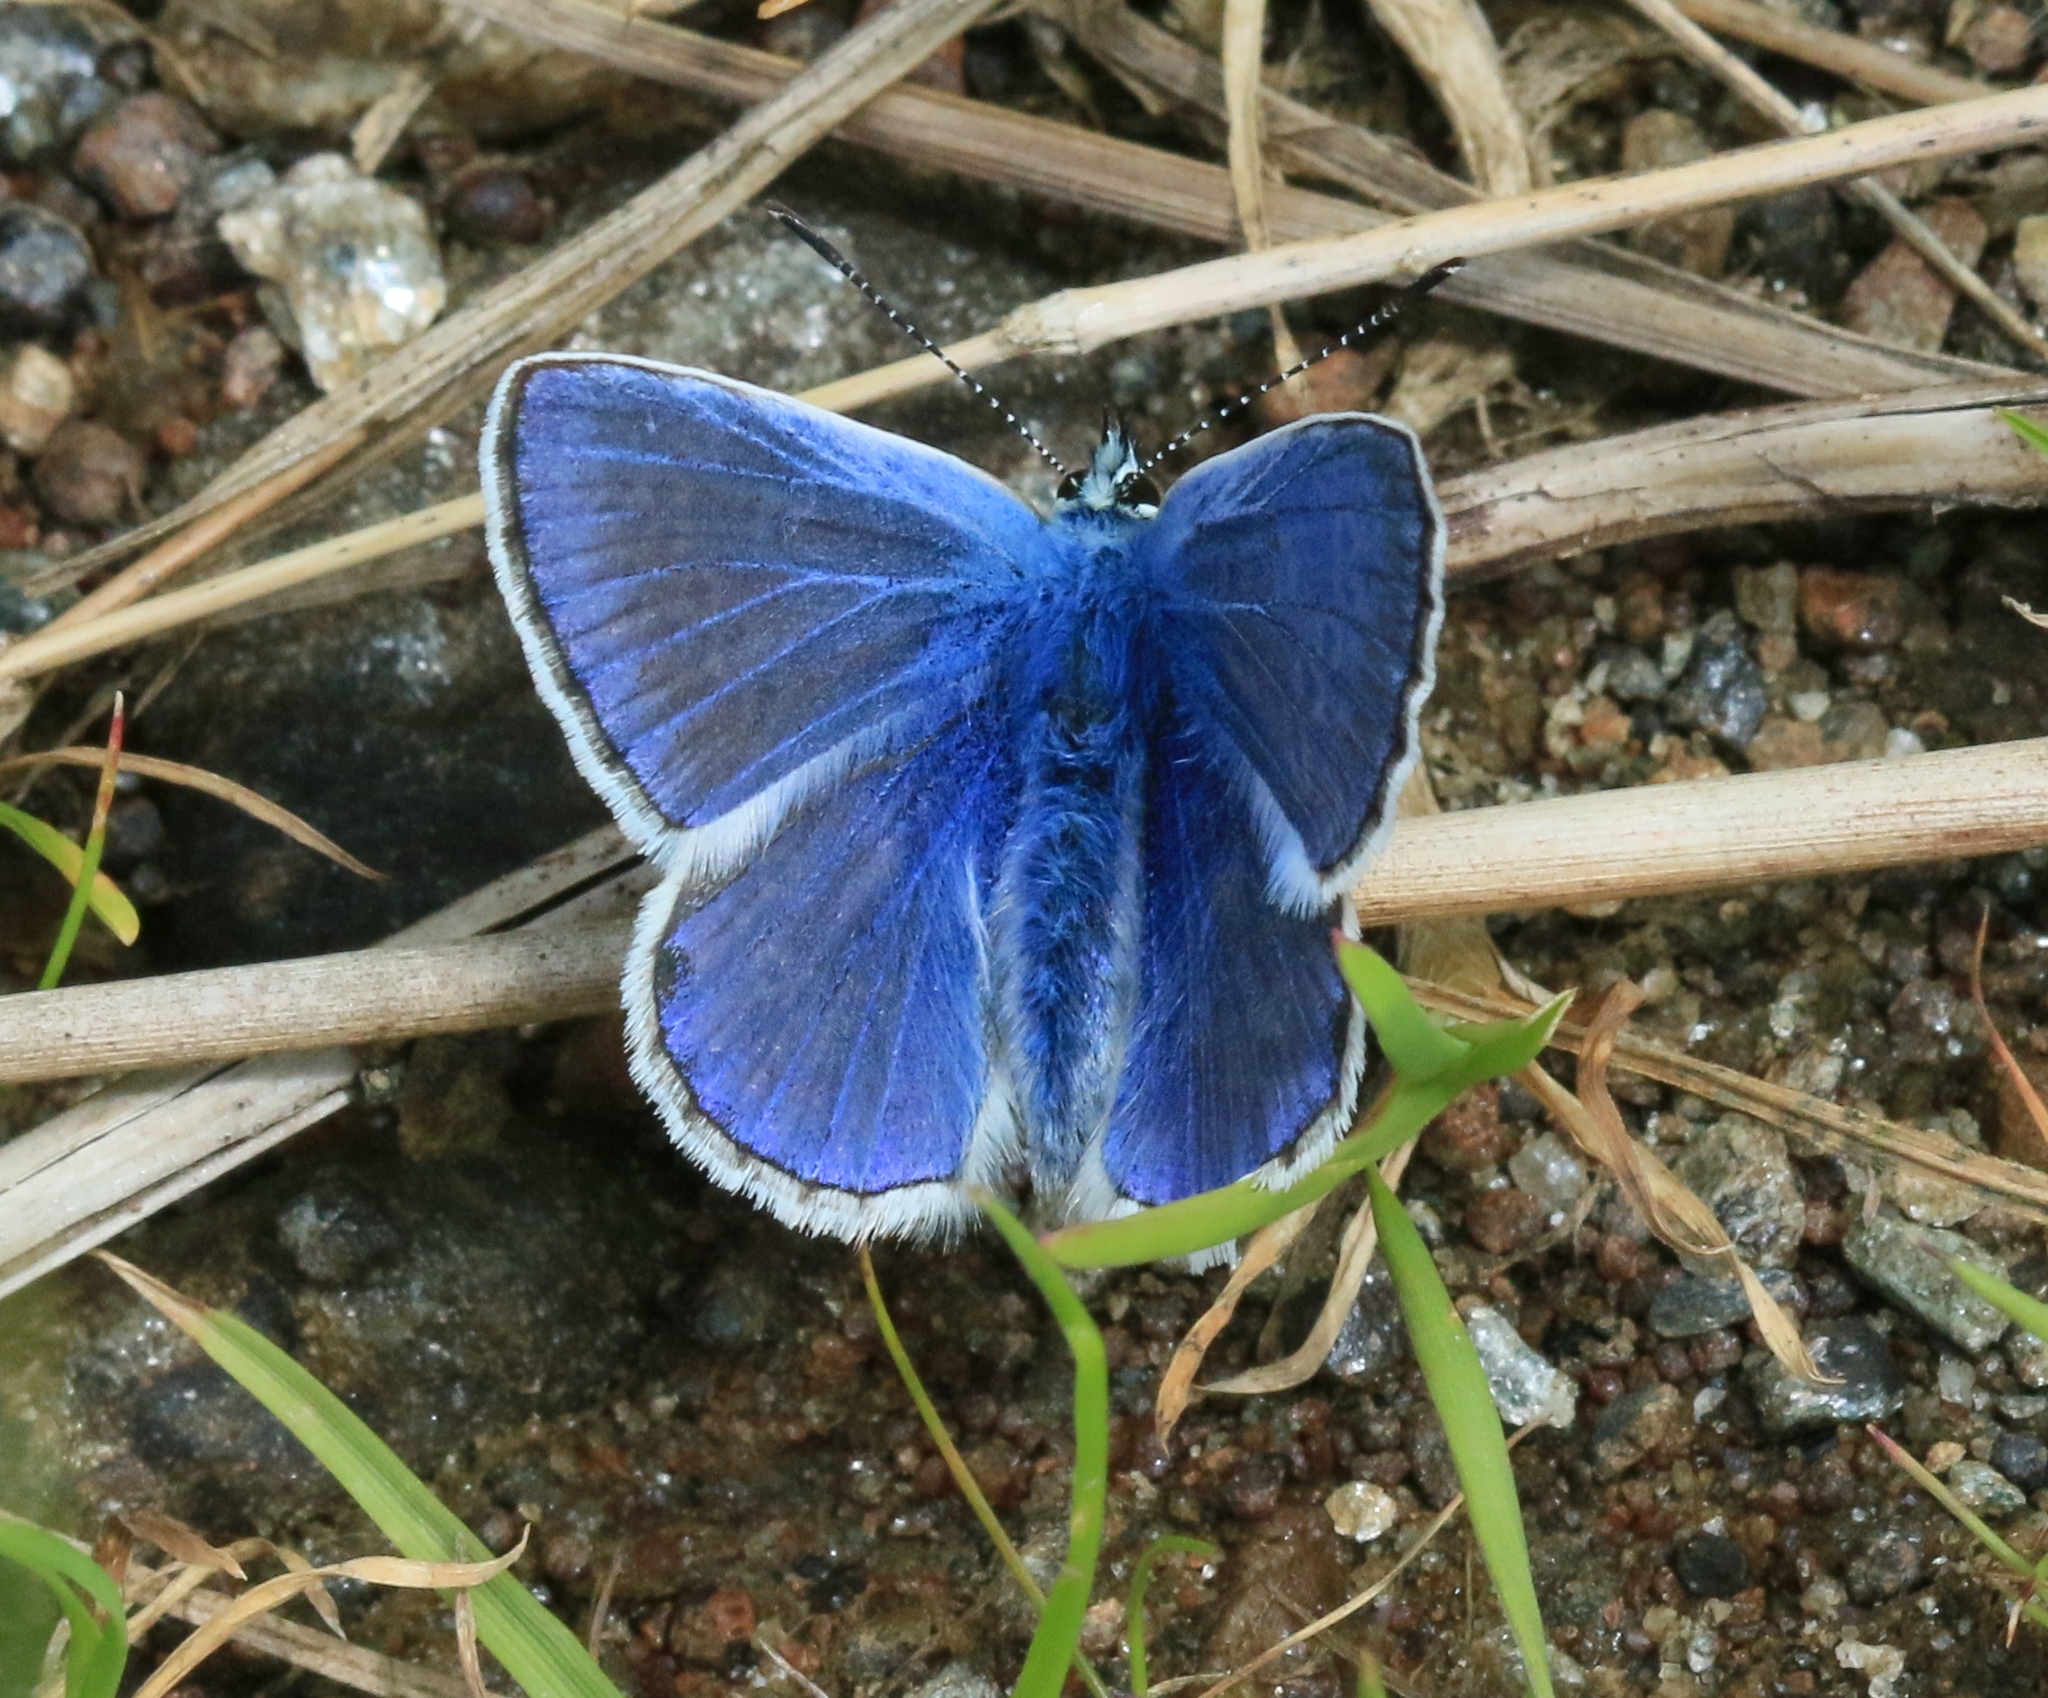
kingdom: Animalia
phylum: Arthropoda
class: Insecta
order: Lepidoptera
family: Lycaenidae
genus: Polyommatus
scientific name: Polyommatus icarus
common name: Common blue
